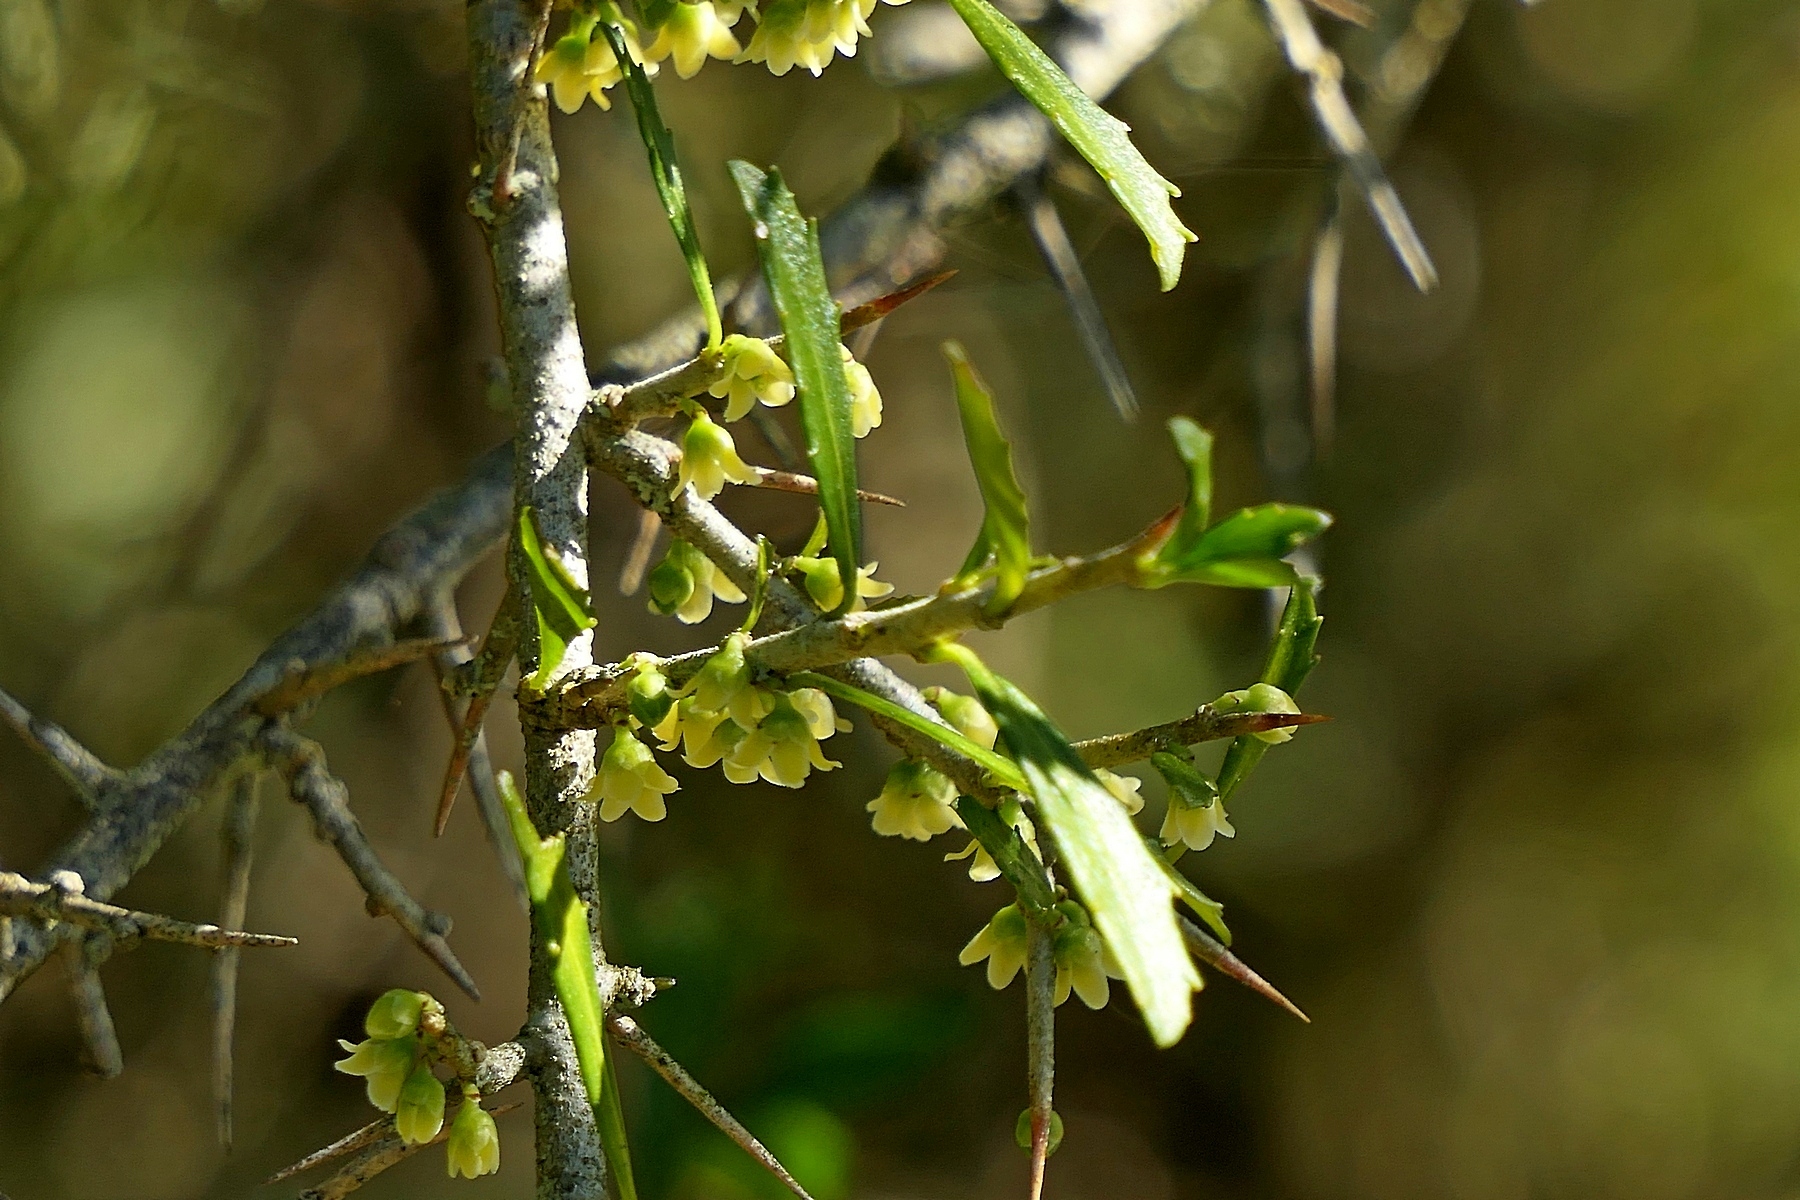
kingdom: Plantae
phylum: Tracheophyta
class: Magnoliopsida
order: Malpighiales
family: Violaceae
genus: Melicytus
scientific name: Melicytus dentatus
